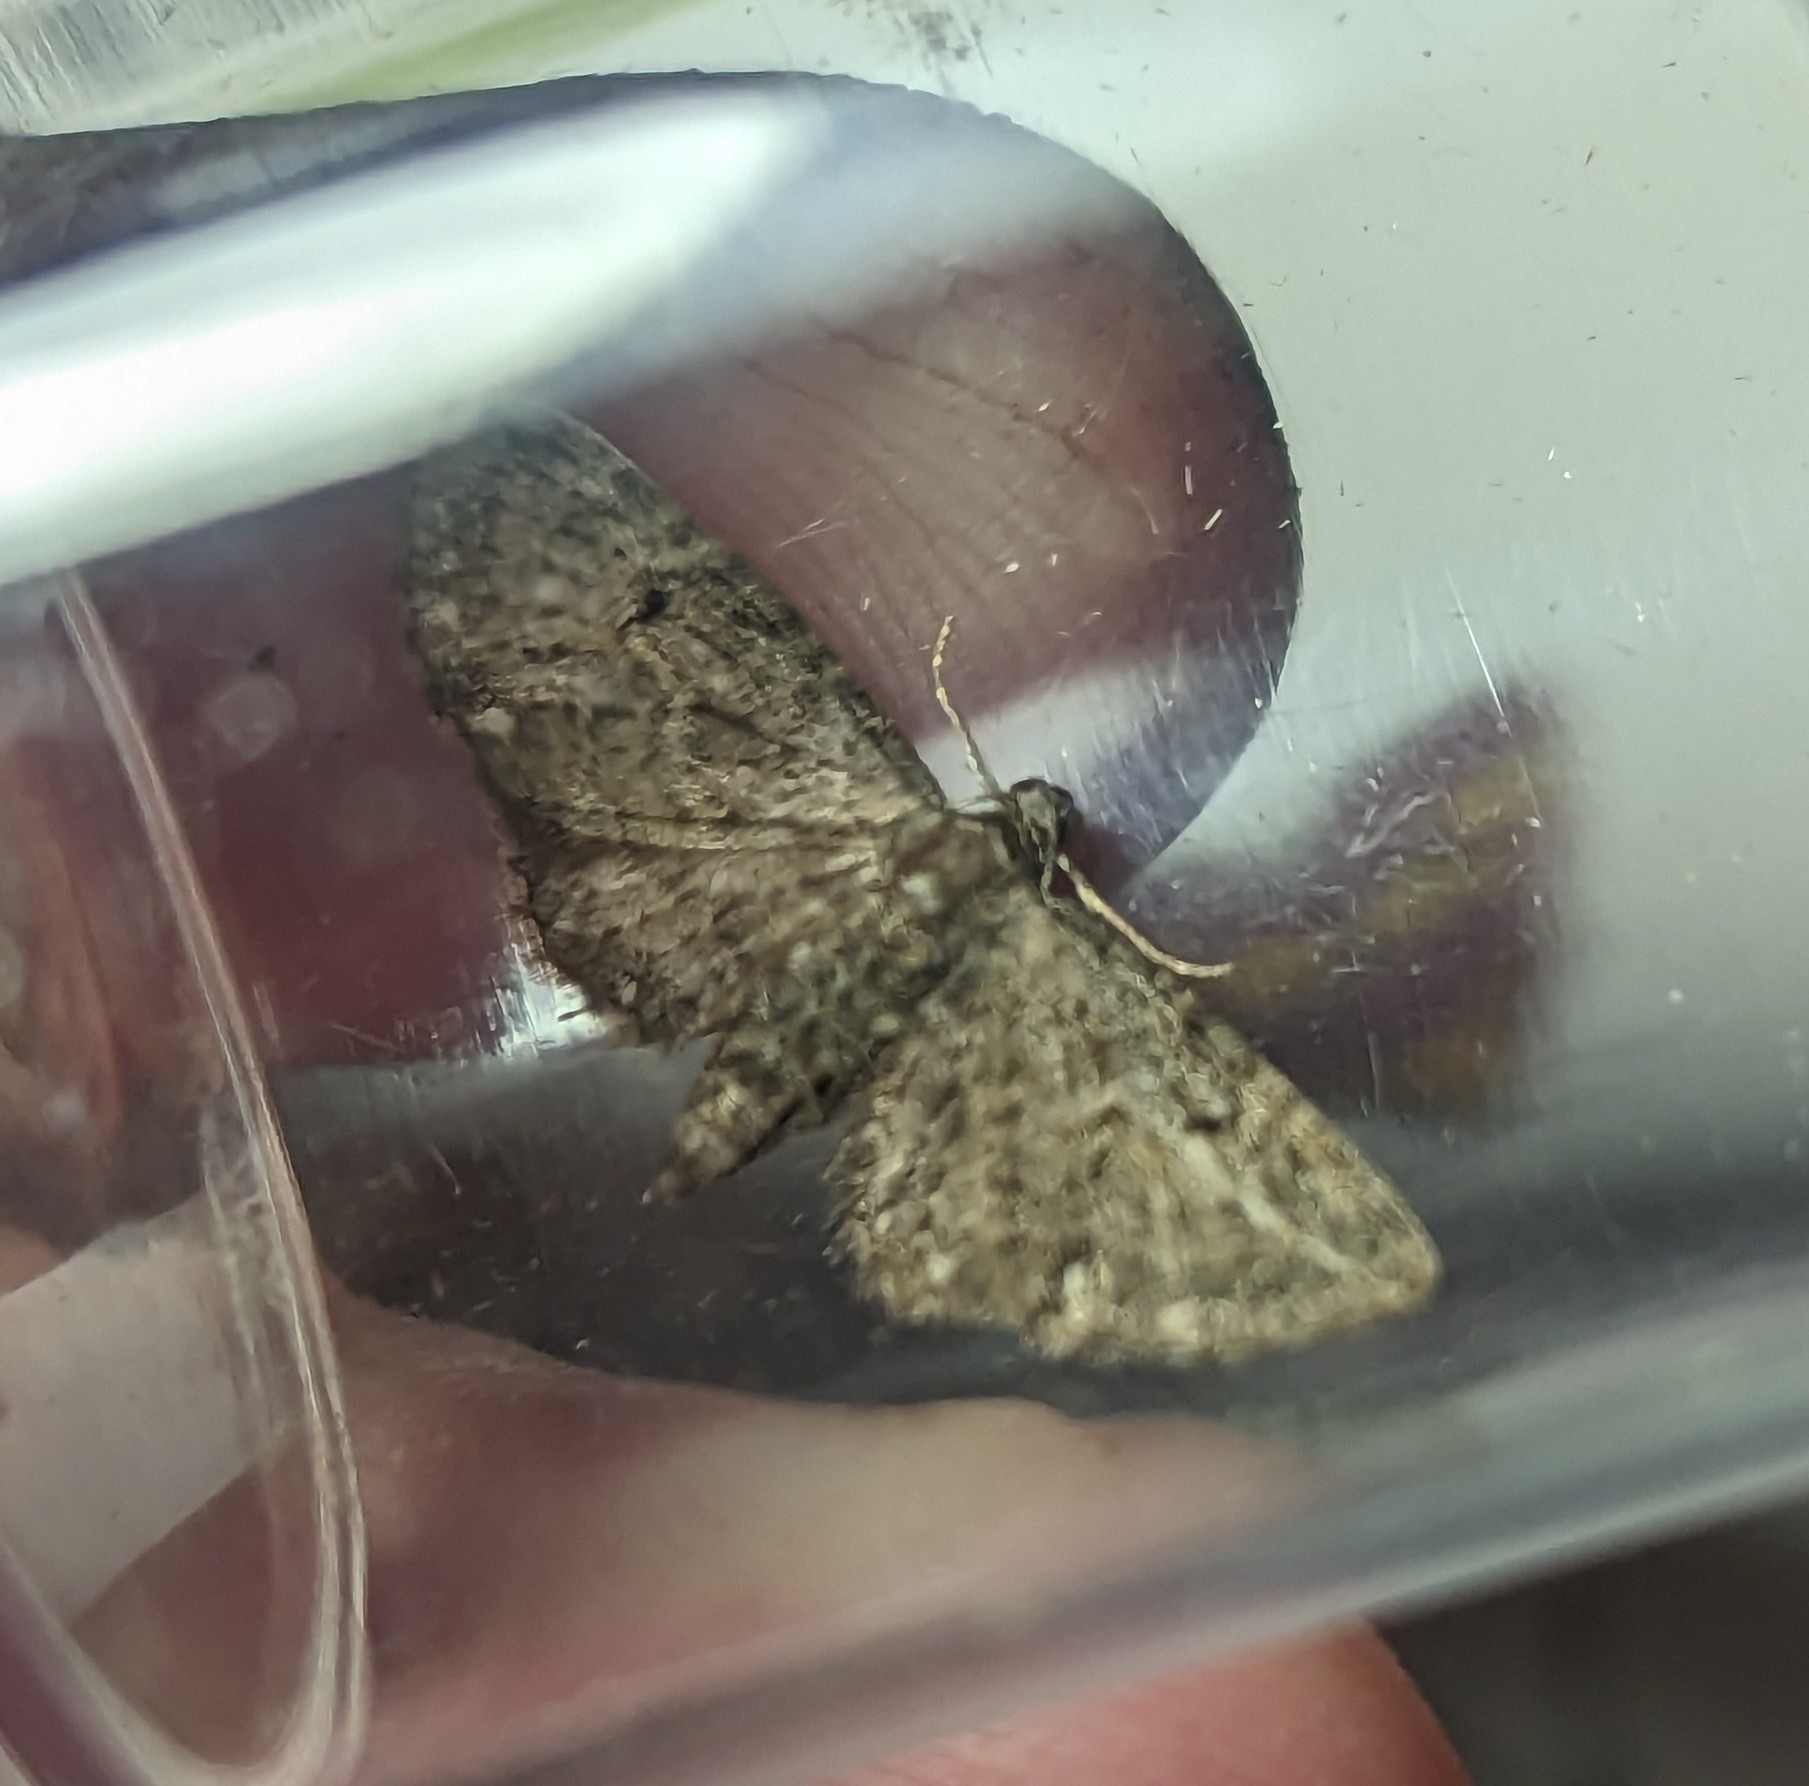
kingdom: Animalia
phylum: Arthropoda
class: Insecta
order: Lepidoptera
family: Geometridae
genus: Eupithecia
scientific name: Eupithecia virgaureata
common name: Golden-rod pug
